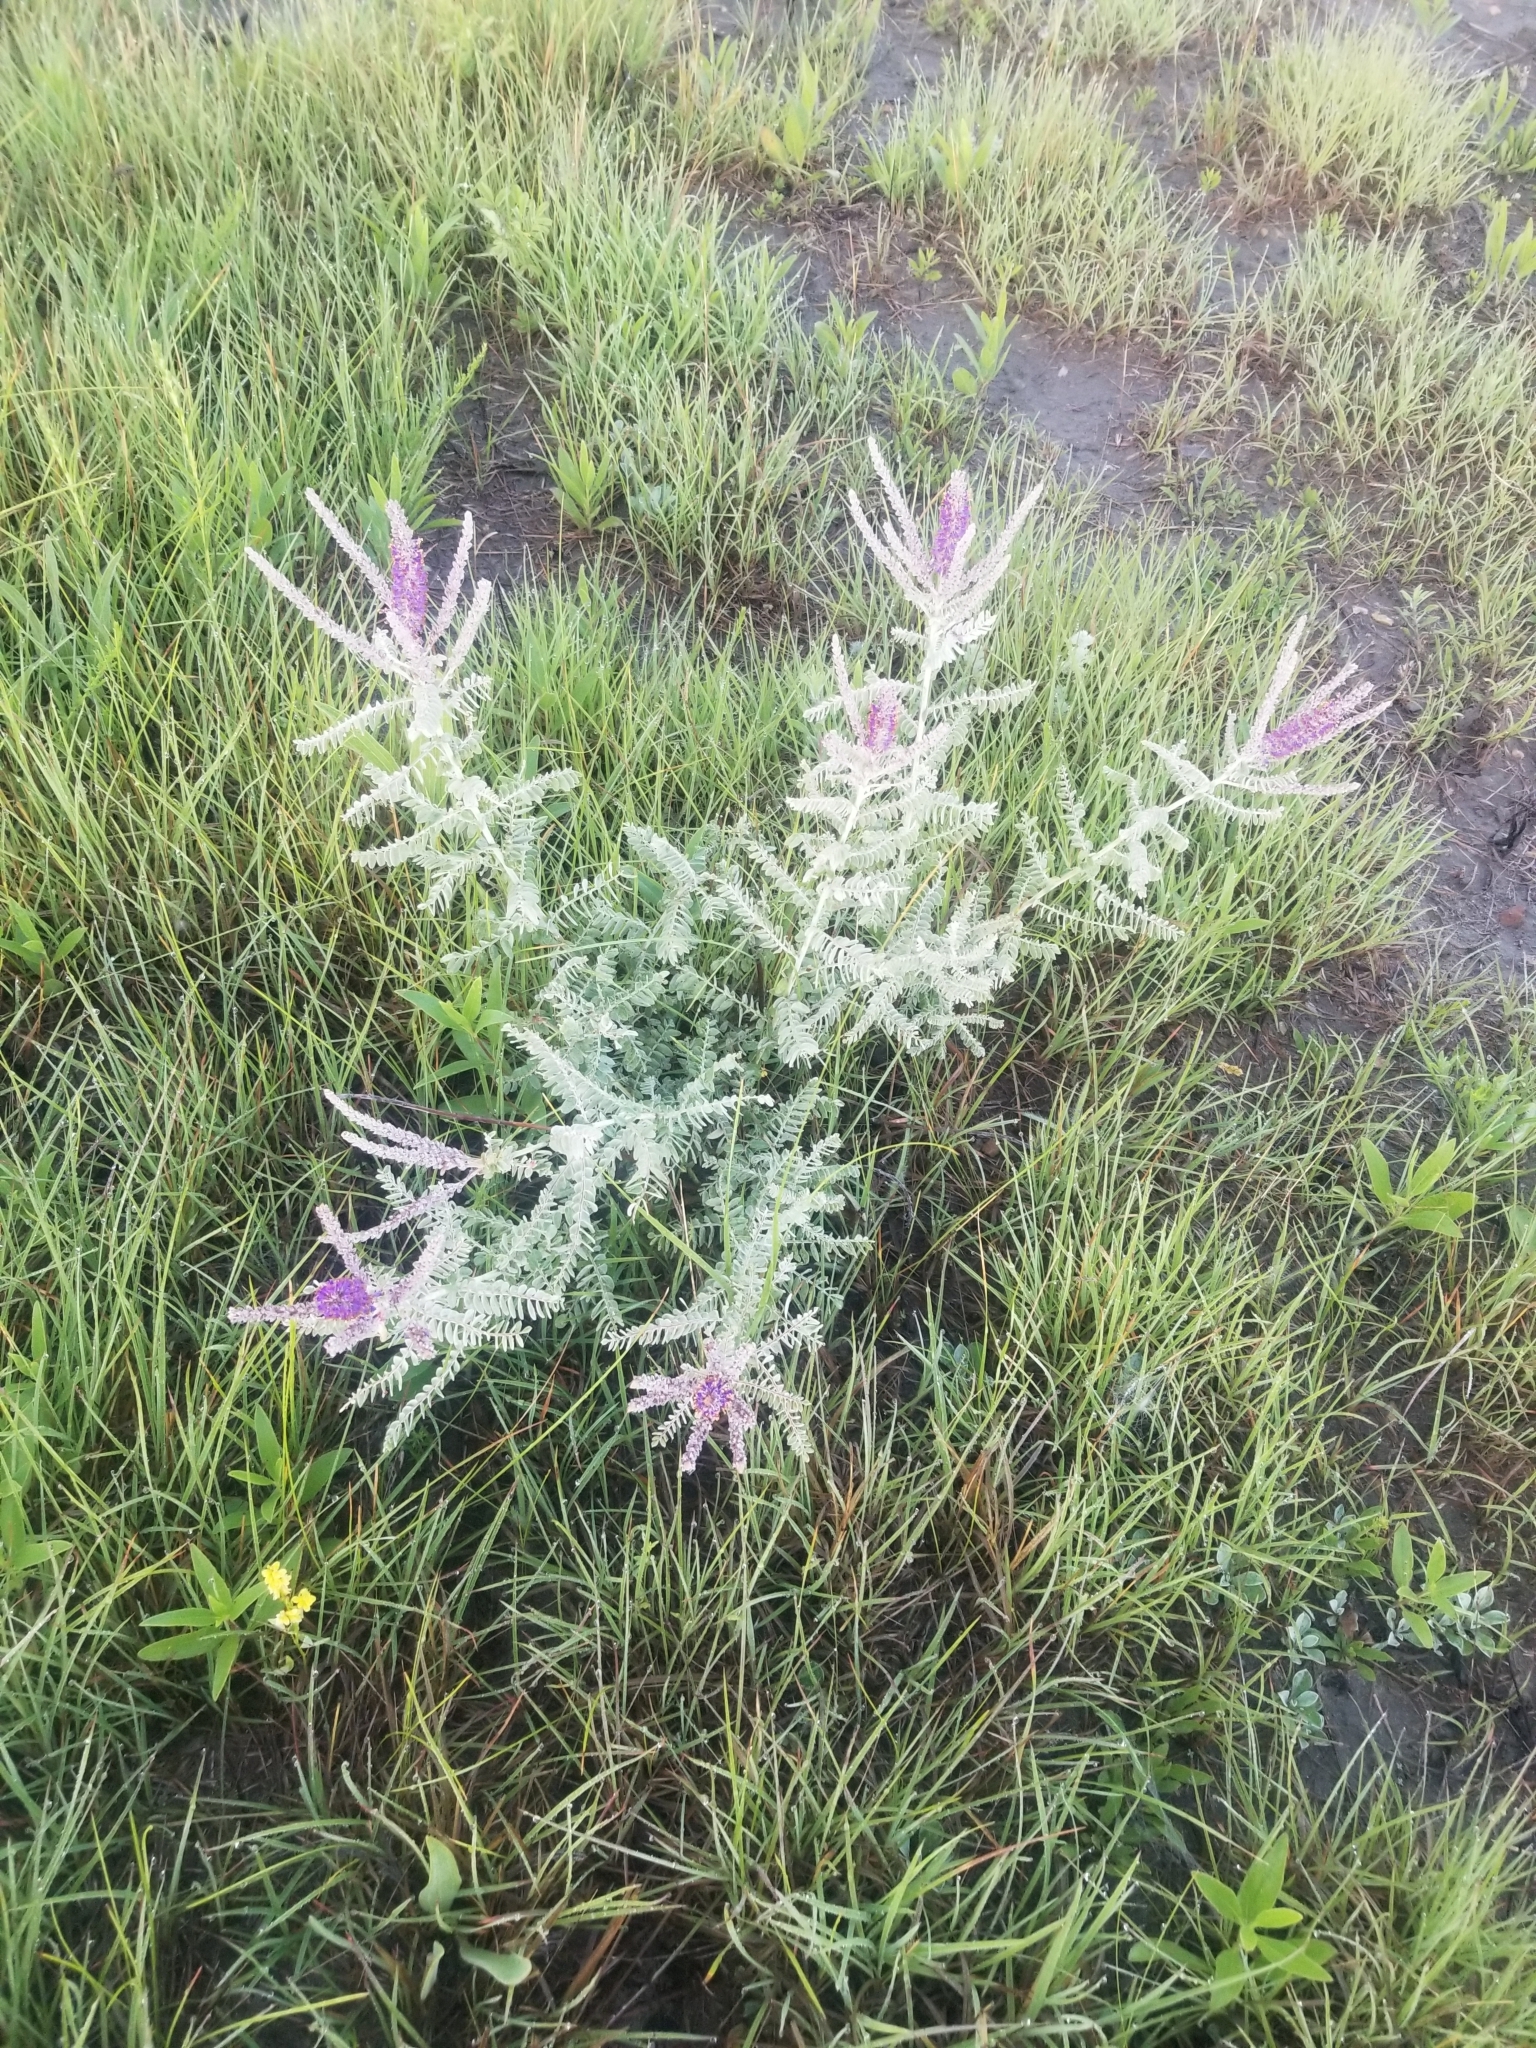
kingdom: Plantae
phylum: Tracheophyta
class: Magnoliopsida
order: Fabales
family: Fabaceae
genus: Amorpha
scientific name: Amorpha canescens
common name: Leadplant
